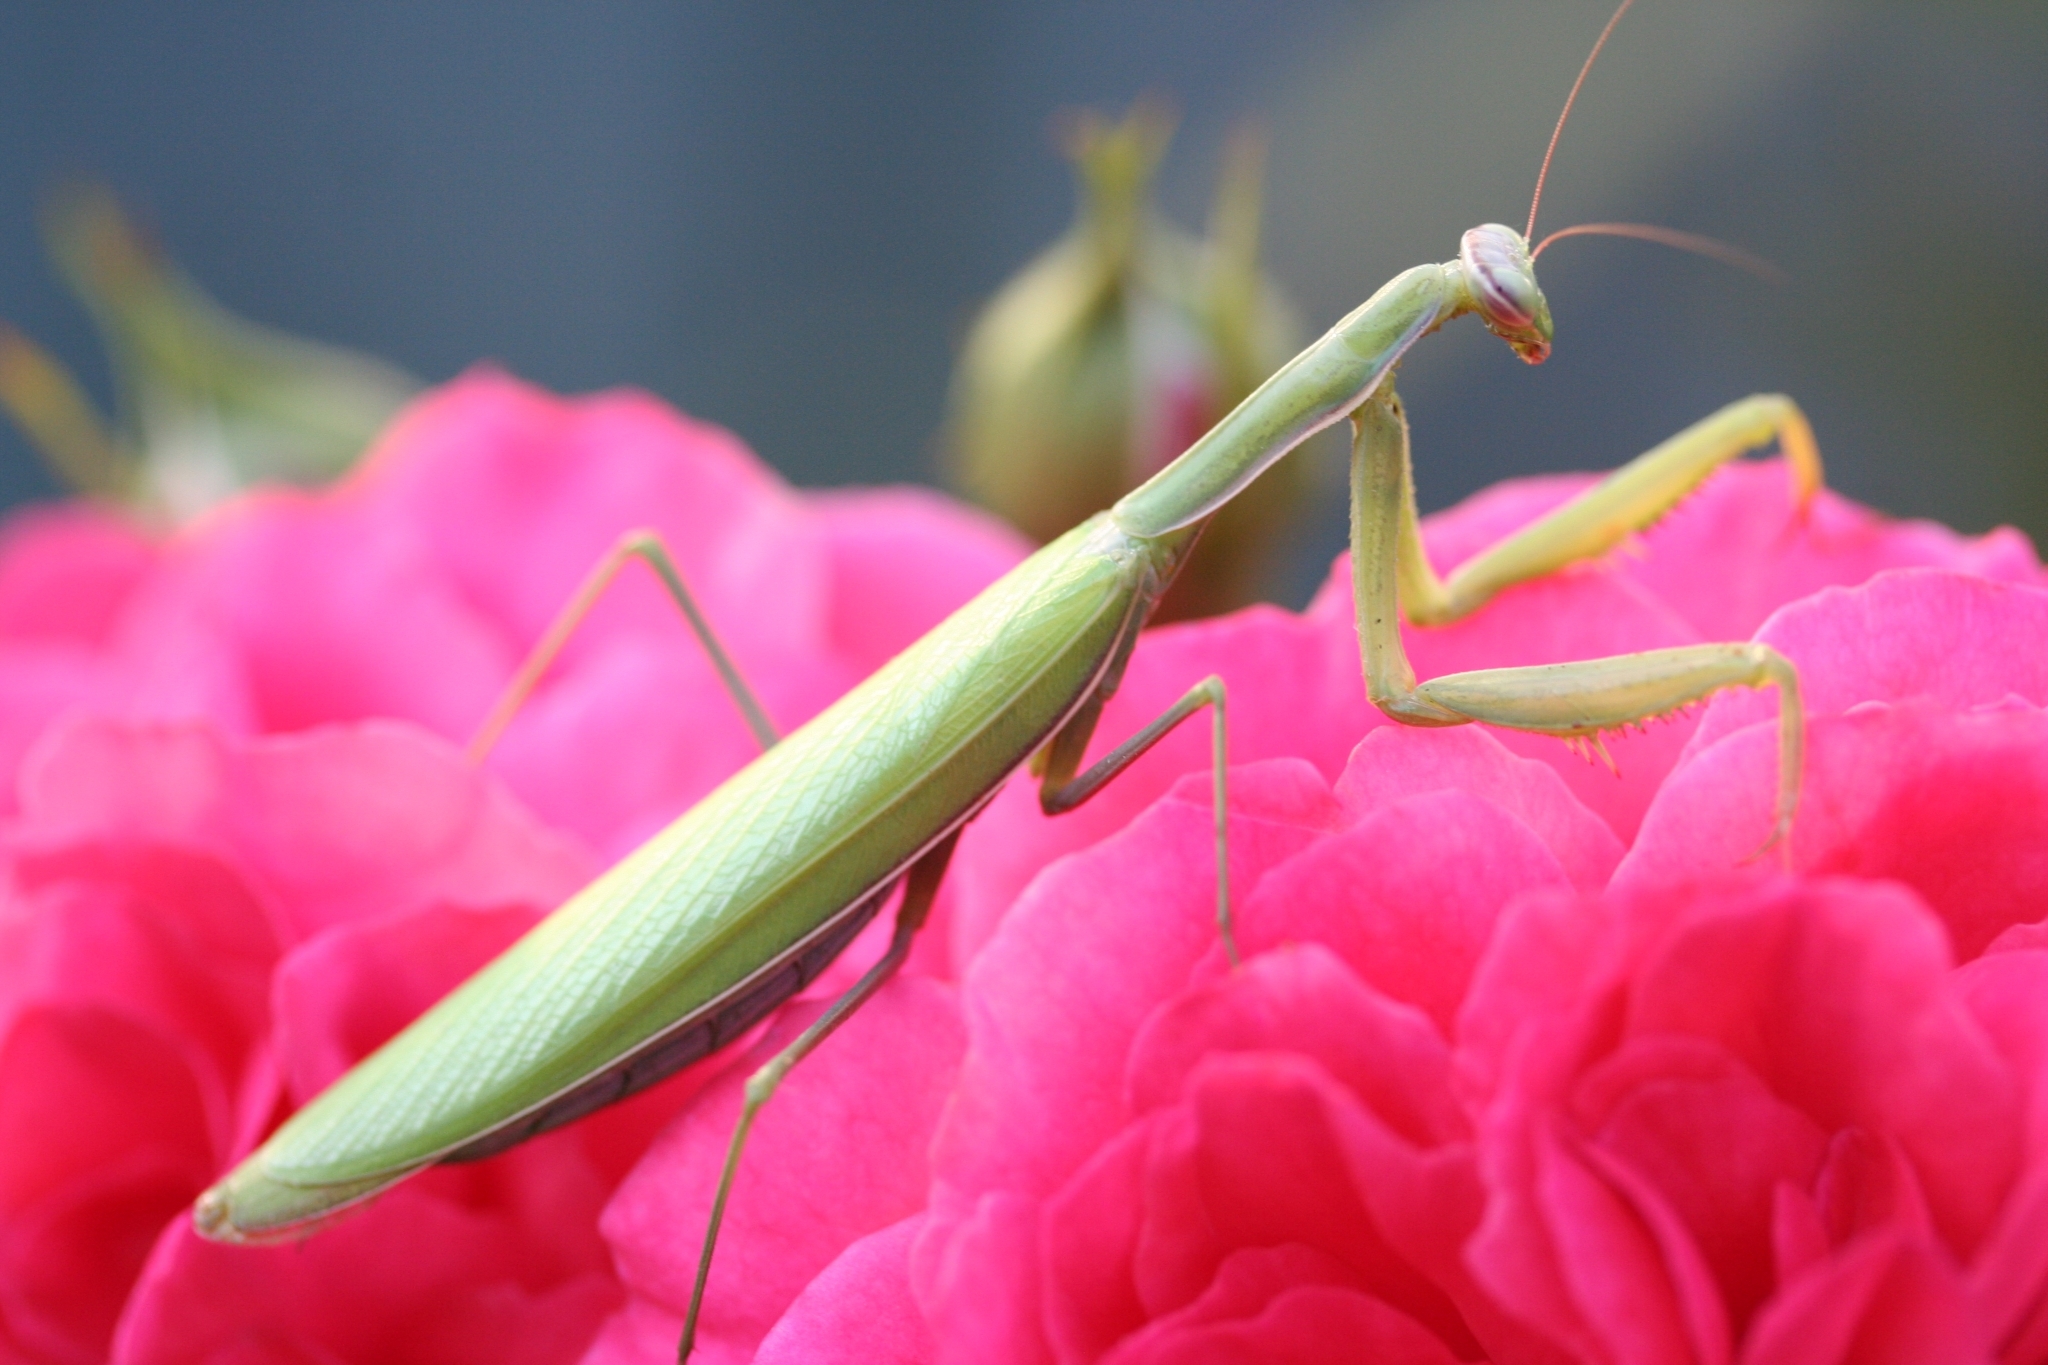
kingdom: Animalia
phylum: Arthropoda
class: Insecta
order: Mantodea
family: Mantidae
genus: Mantis
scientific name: Mantis religiosa
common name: Praying mantis
